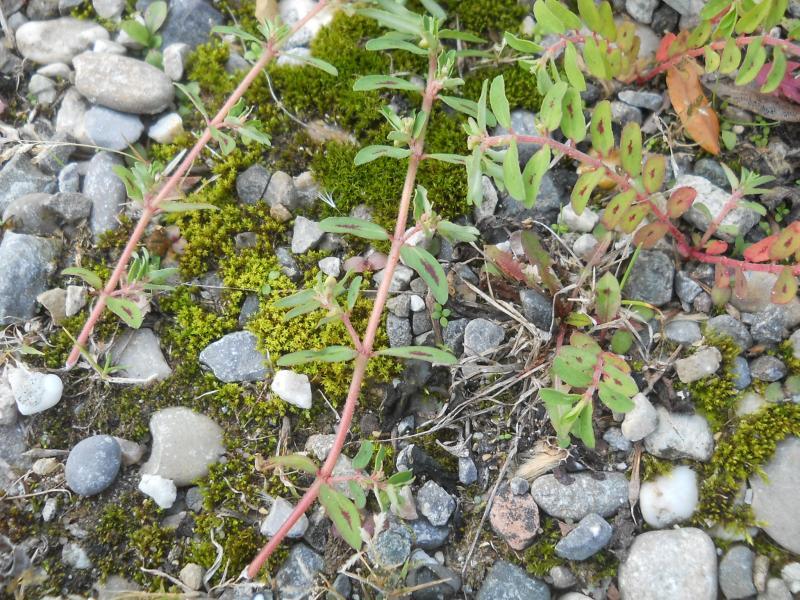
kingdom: Plantae
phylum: Tracheophyta
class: Magnoliopsida
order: Malpighiales
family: Euphorbiaceae
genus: Euphorbia
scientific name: Euphorbia maculata
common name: Spotted spurge
